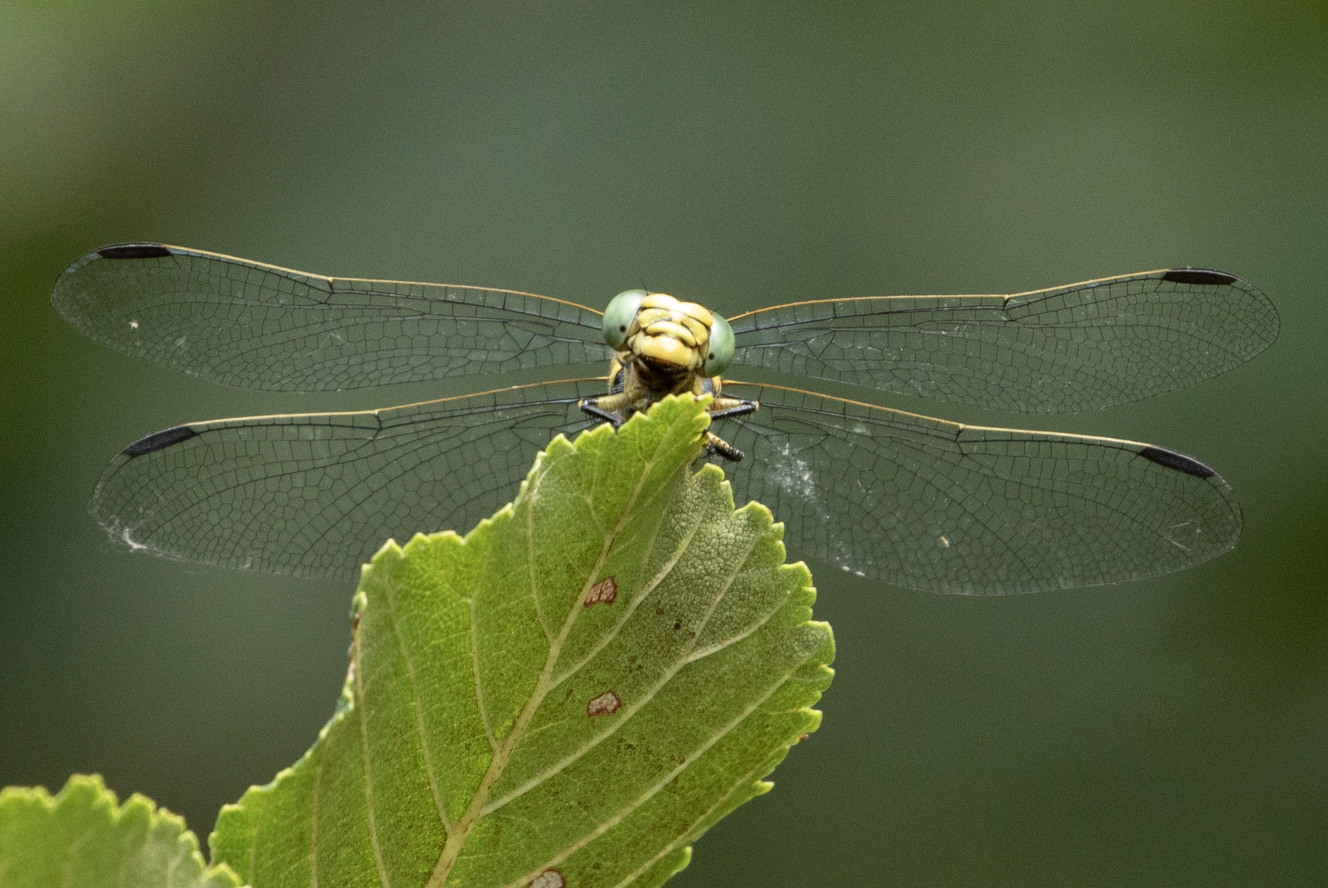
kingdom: Animalia
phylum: Arthropoda
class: Insecta
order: Odonata
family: Gomphidae
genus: Onychogomphus
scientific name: Onychogomphus forcipatus
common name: Small pincertail
